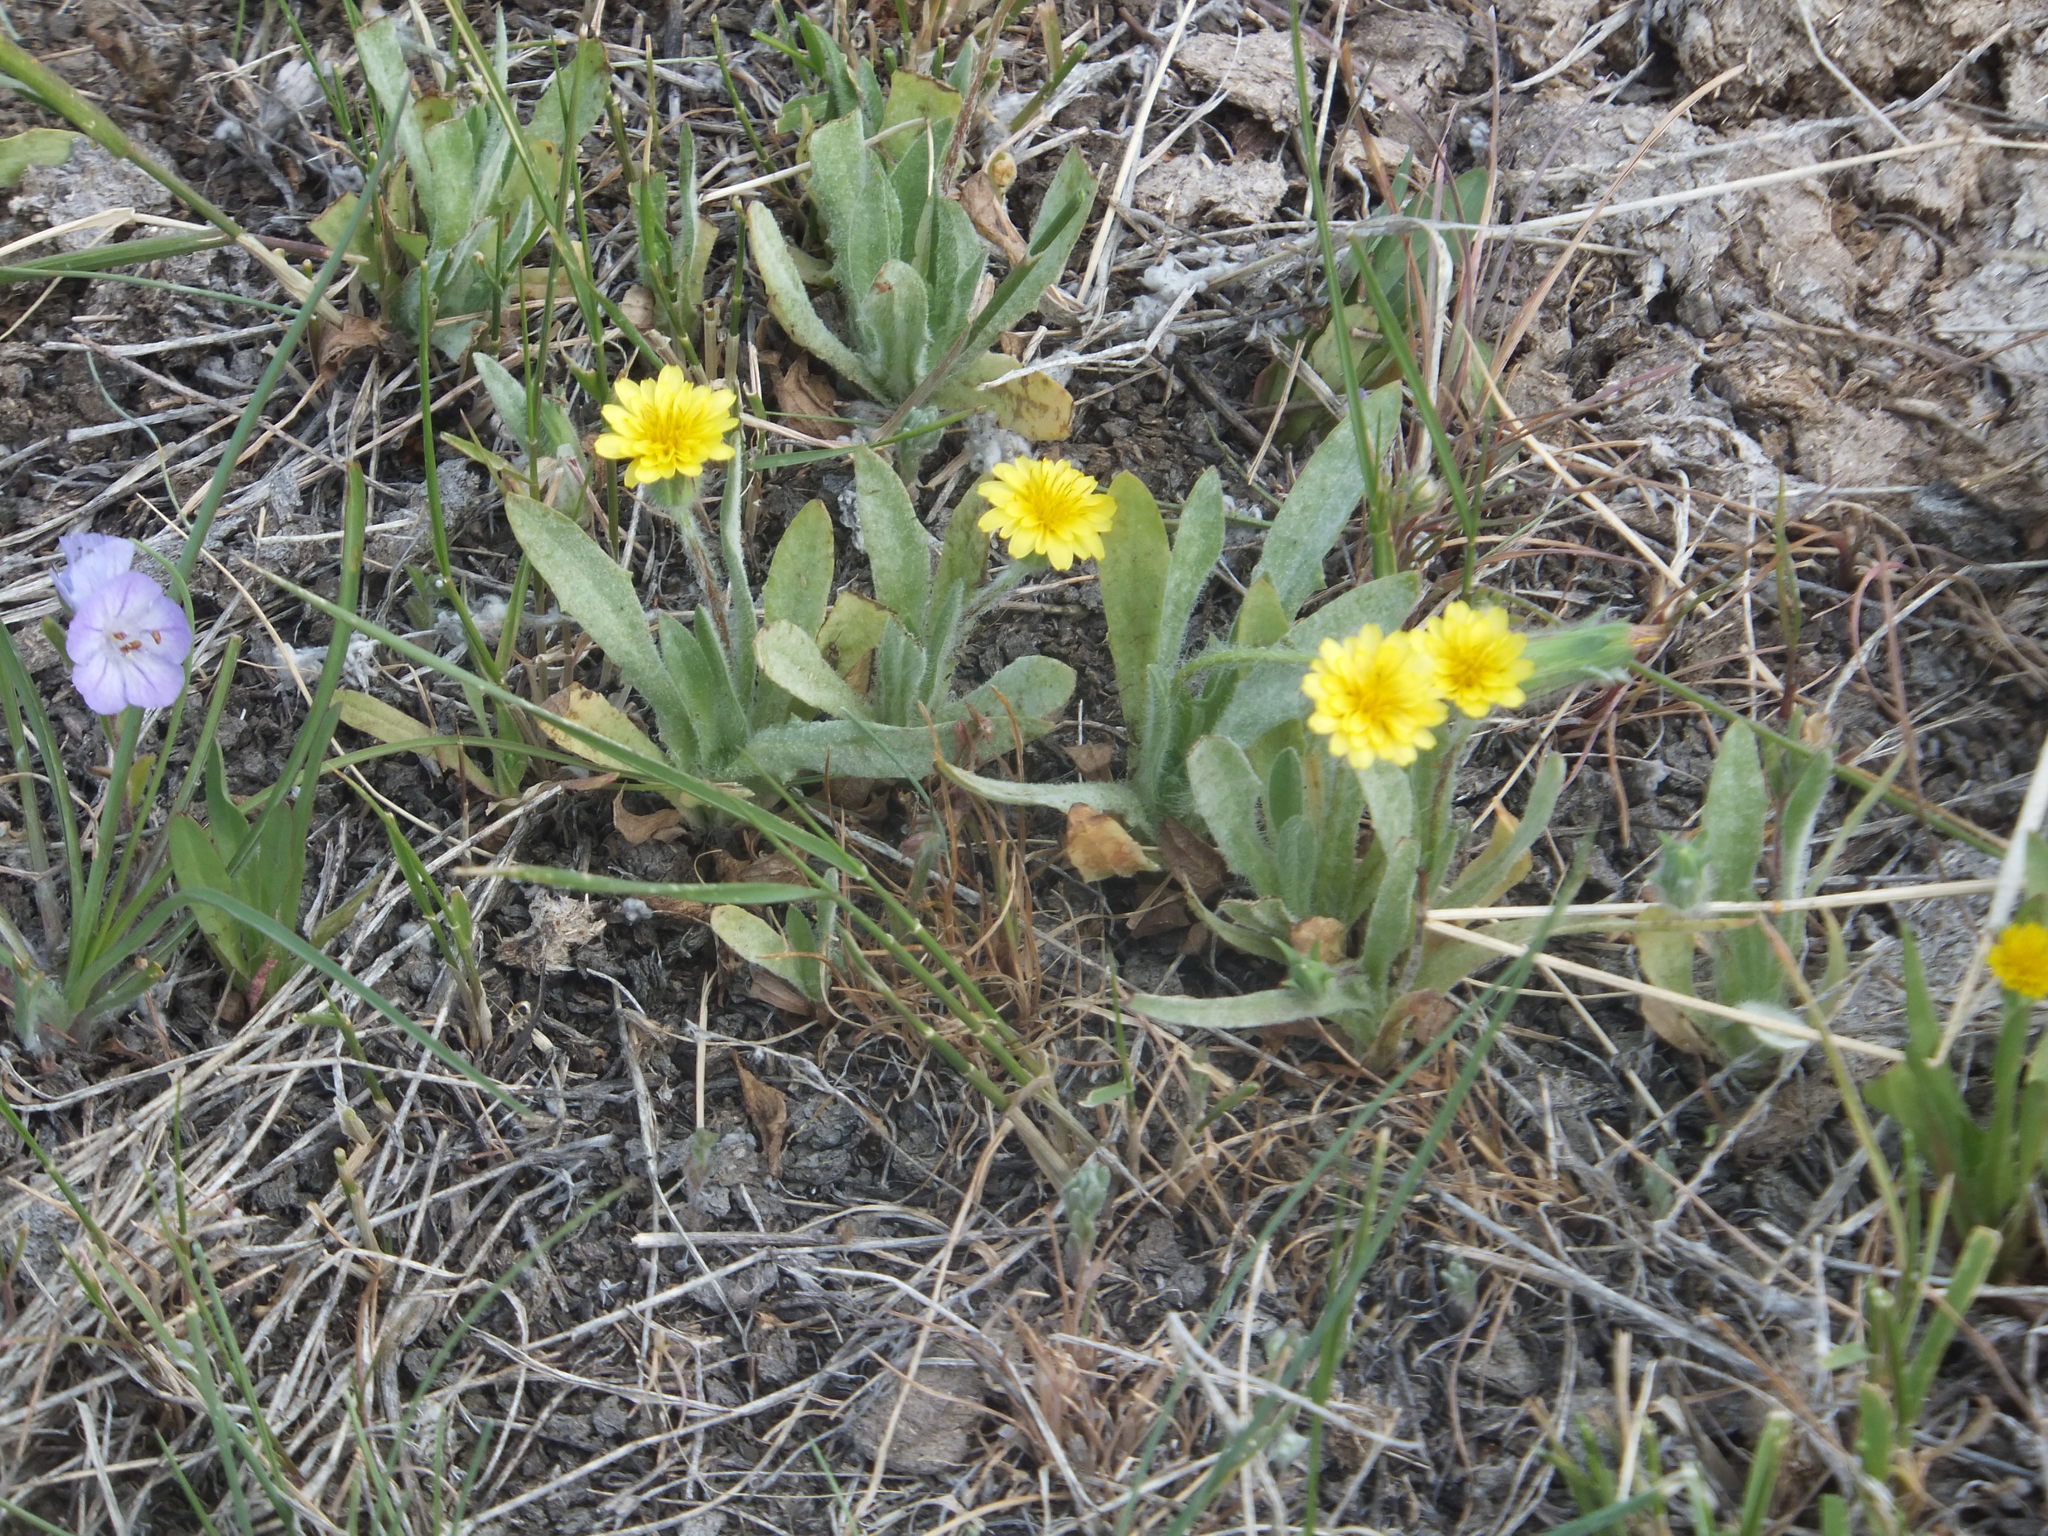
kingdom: Plantae
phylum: Tracheophyta
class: Magnoliopsida
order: Asterales
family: Asteraceae
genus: Agoseris
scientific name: Agoseris heterophylla
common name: Annual agoseris
